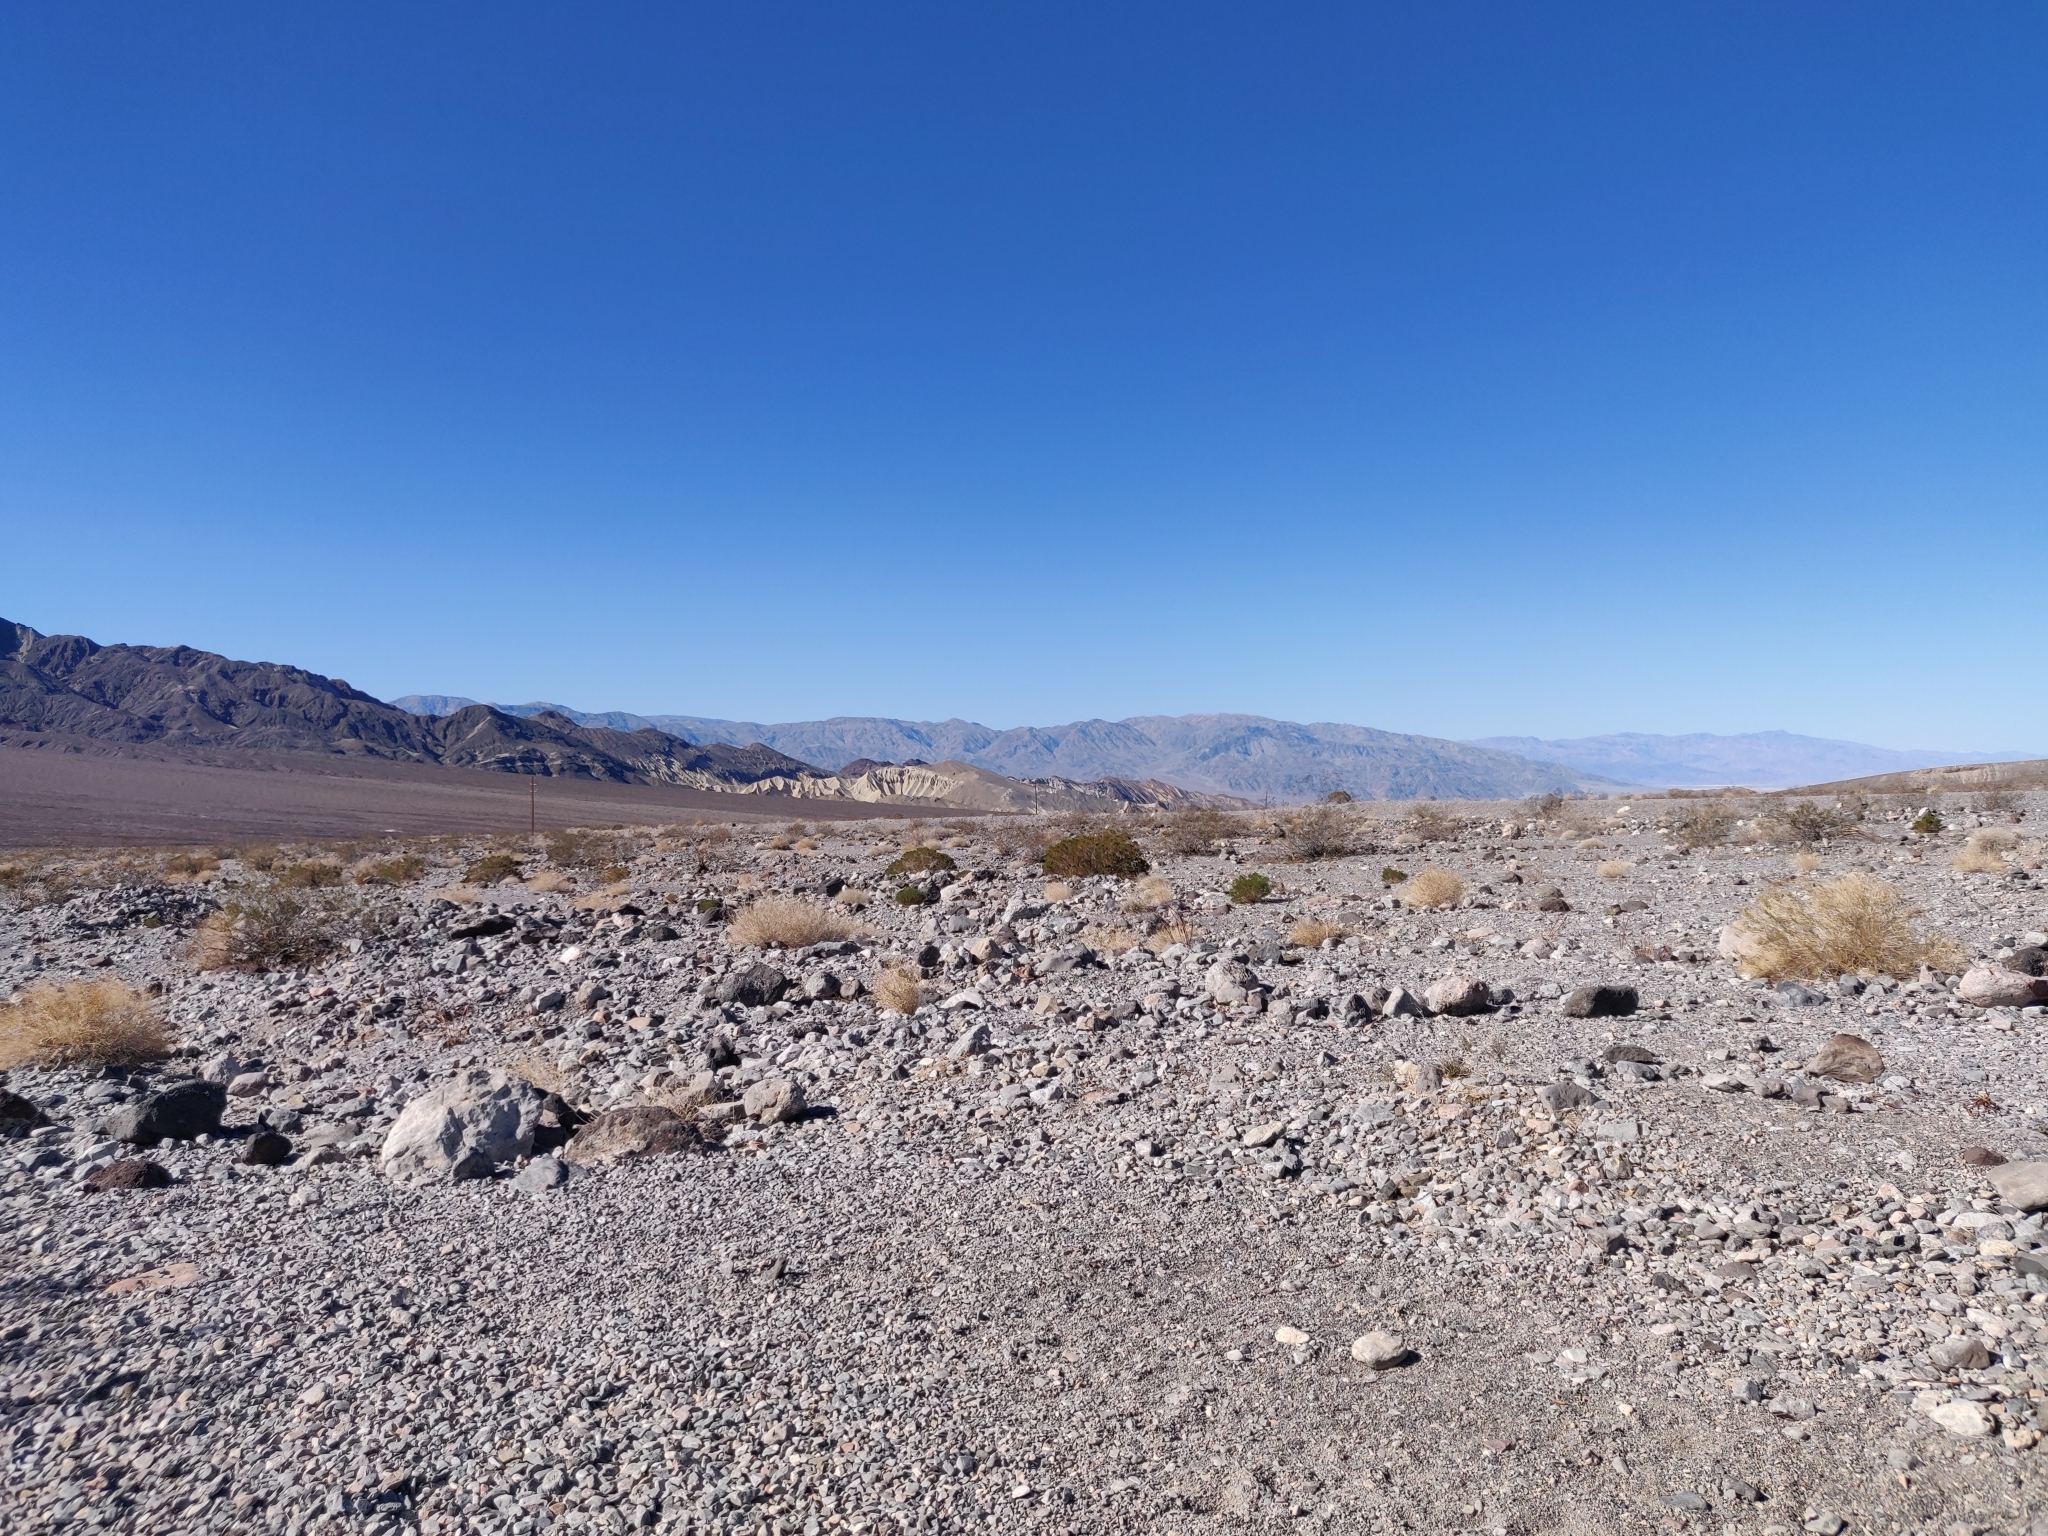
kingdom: Plantae
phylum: Tracheophyta
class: Magnoliopsida
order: Caryophyllales
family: Amaranthaceae
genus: Atriplex
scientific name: Atriplex hymenelytra
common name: Desert-holly
